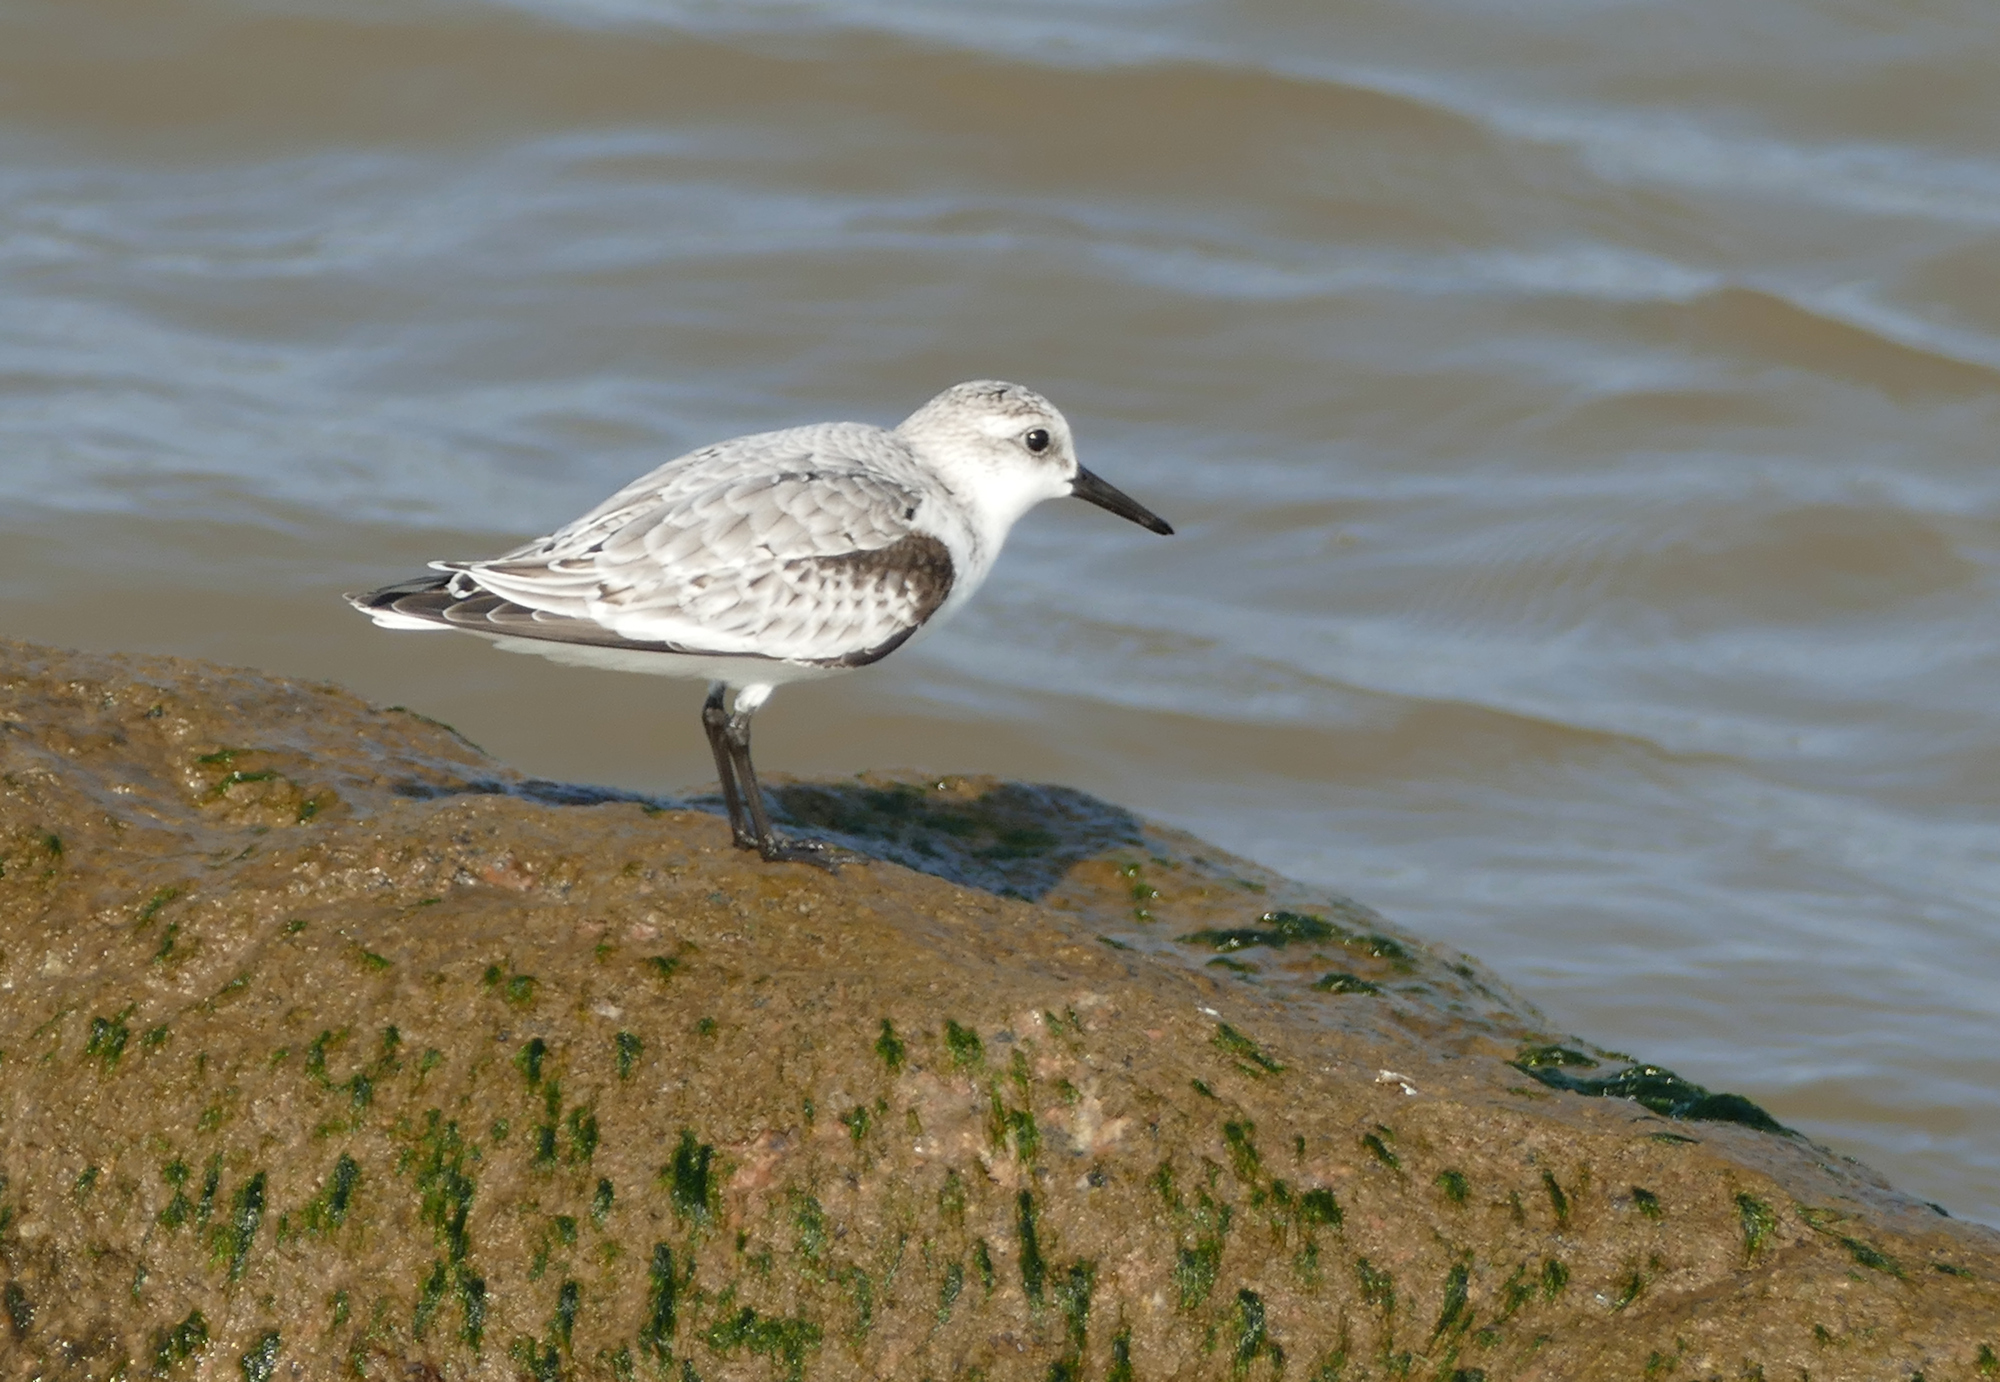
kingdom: Animalia
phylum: Chordata
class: Aves
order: Charadriiformes
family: Scolopacidae
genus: Calidris
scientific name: Calidris alba
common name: Sanderling
